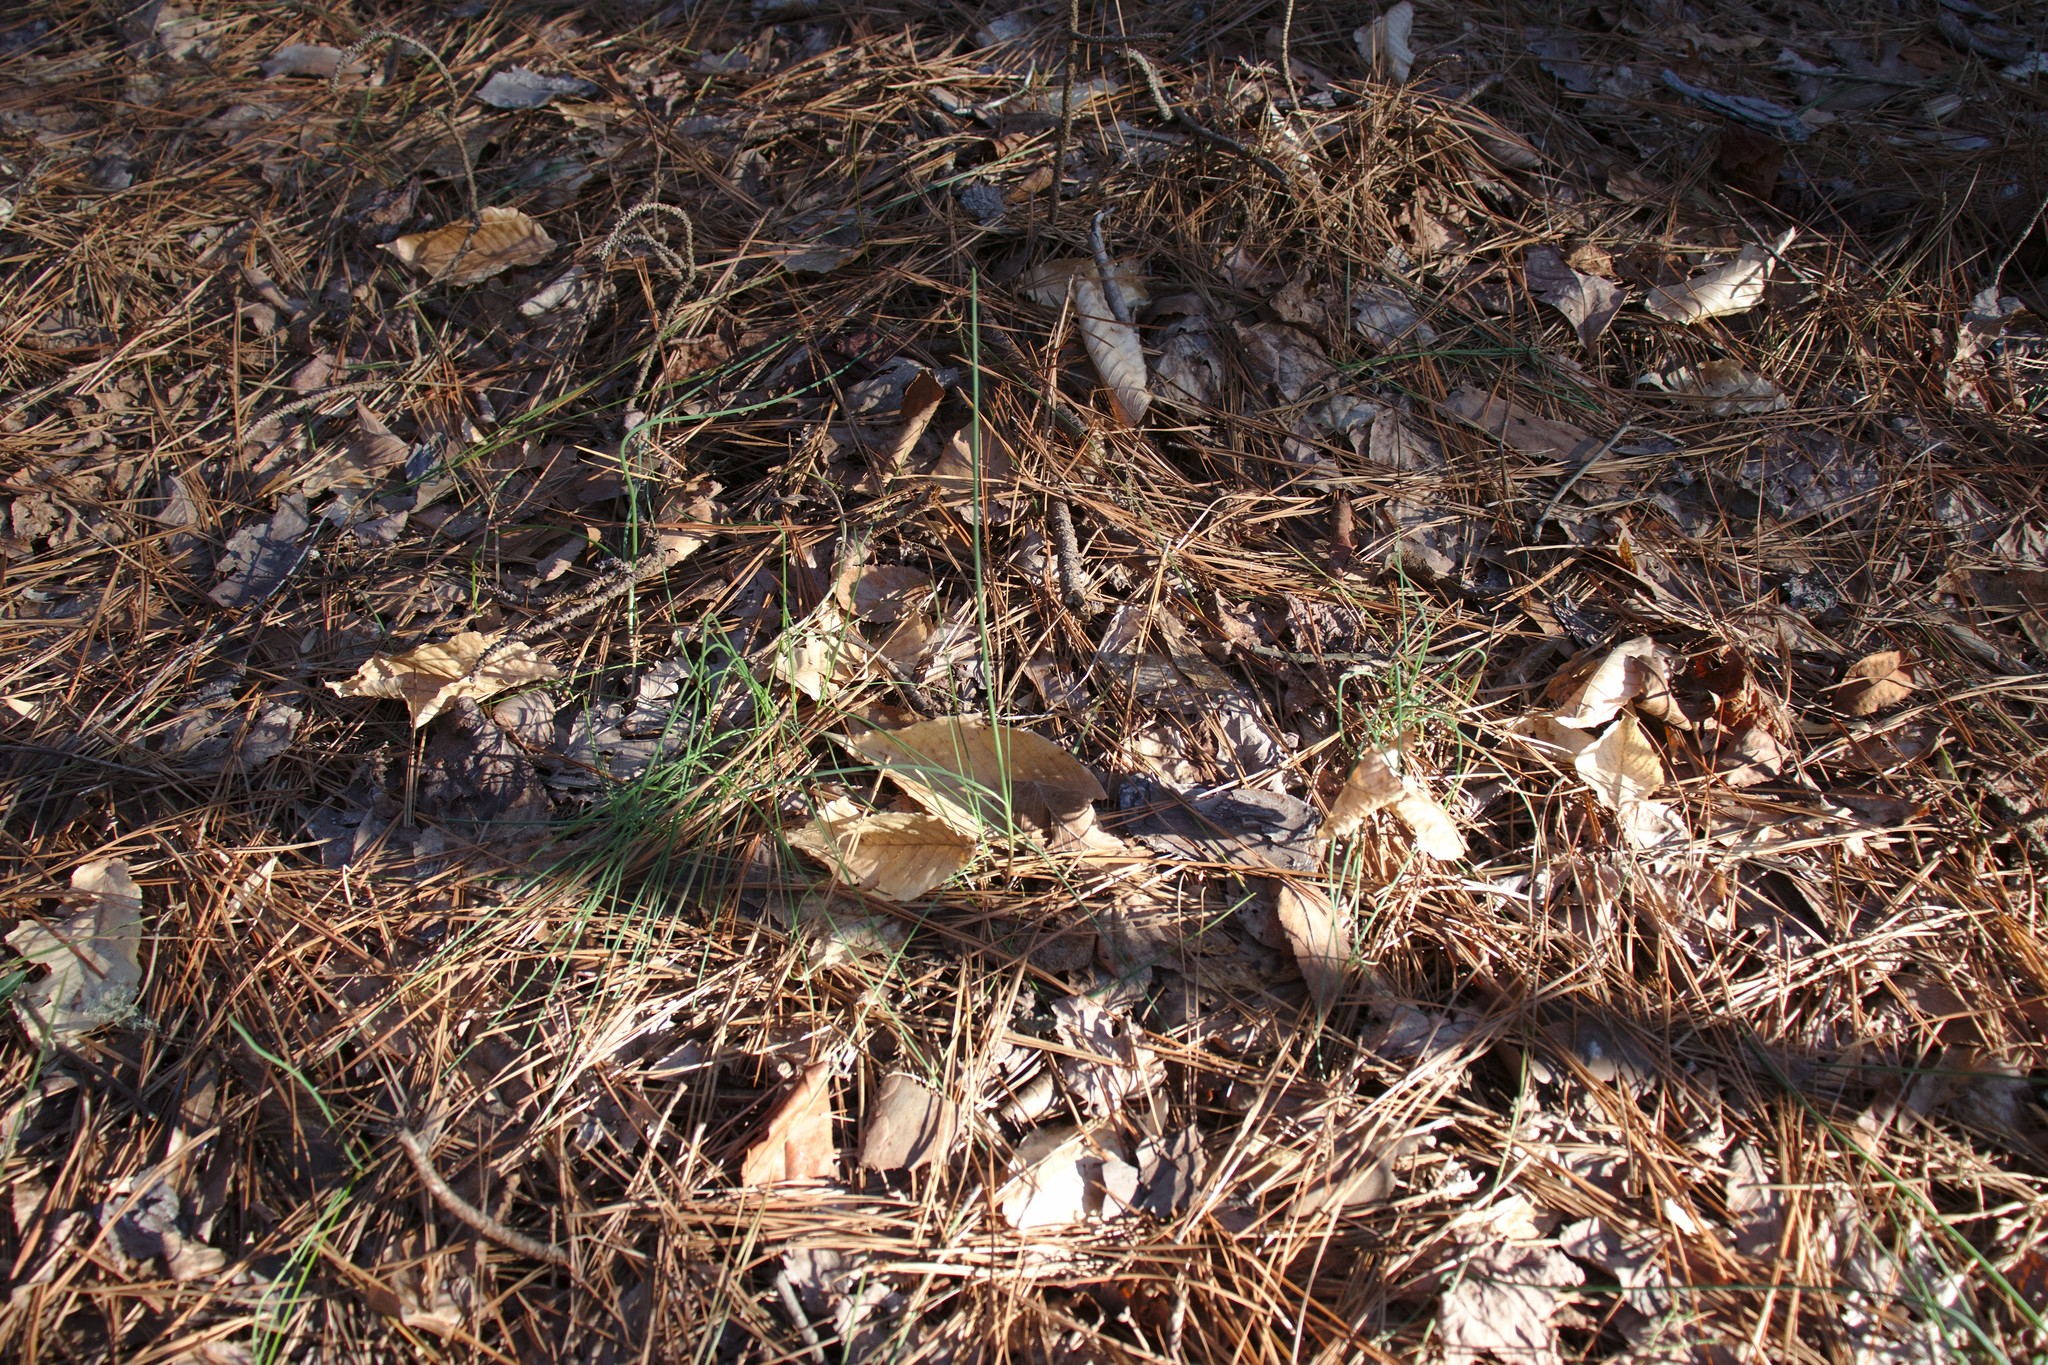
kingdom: Plantae
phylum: Tracheophyta
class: Liliopsida
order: Asparagales
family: Amaryllidaceae
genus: Allium
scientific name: Allium vineale
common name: Crow garlic
